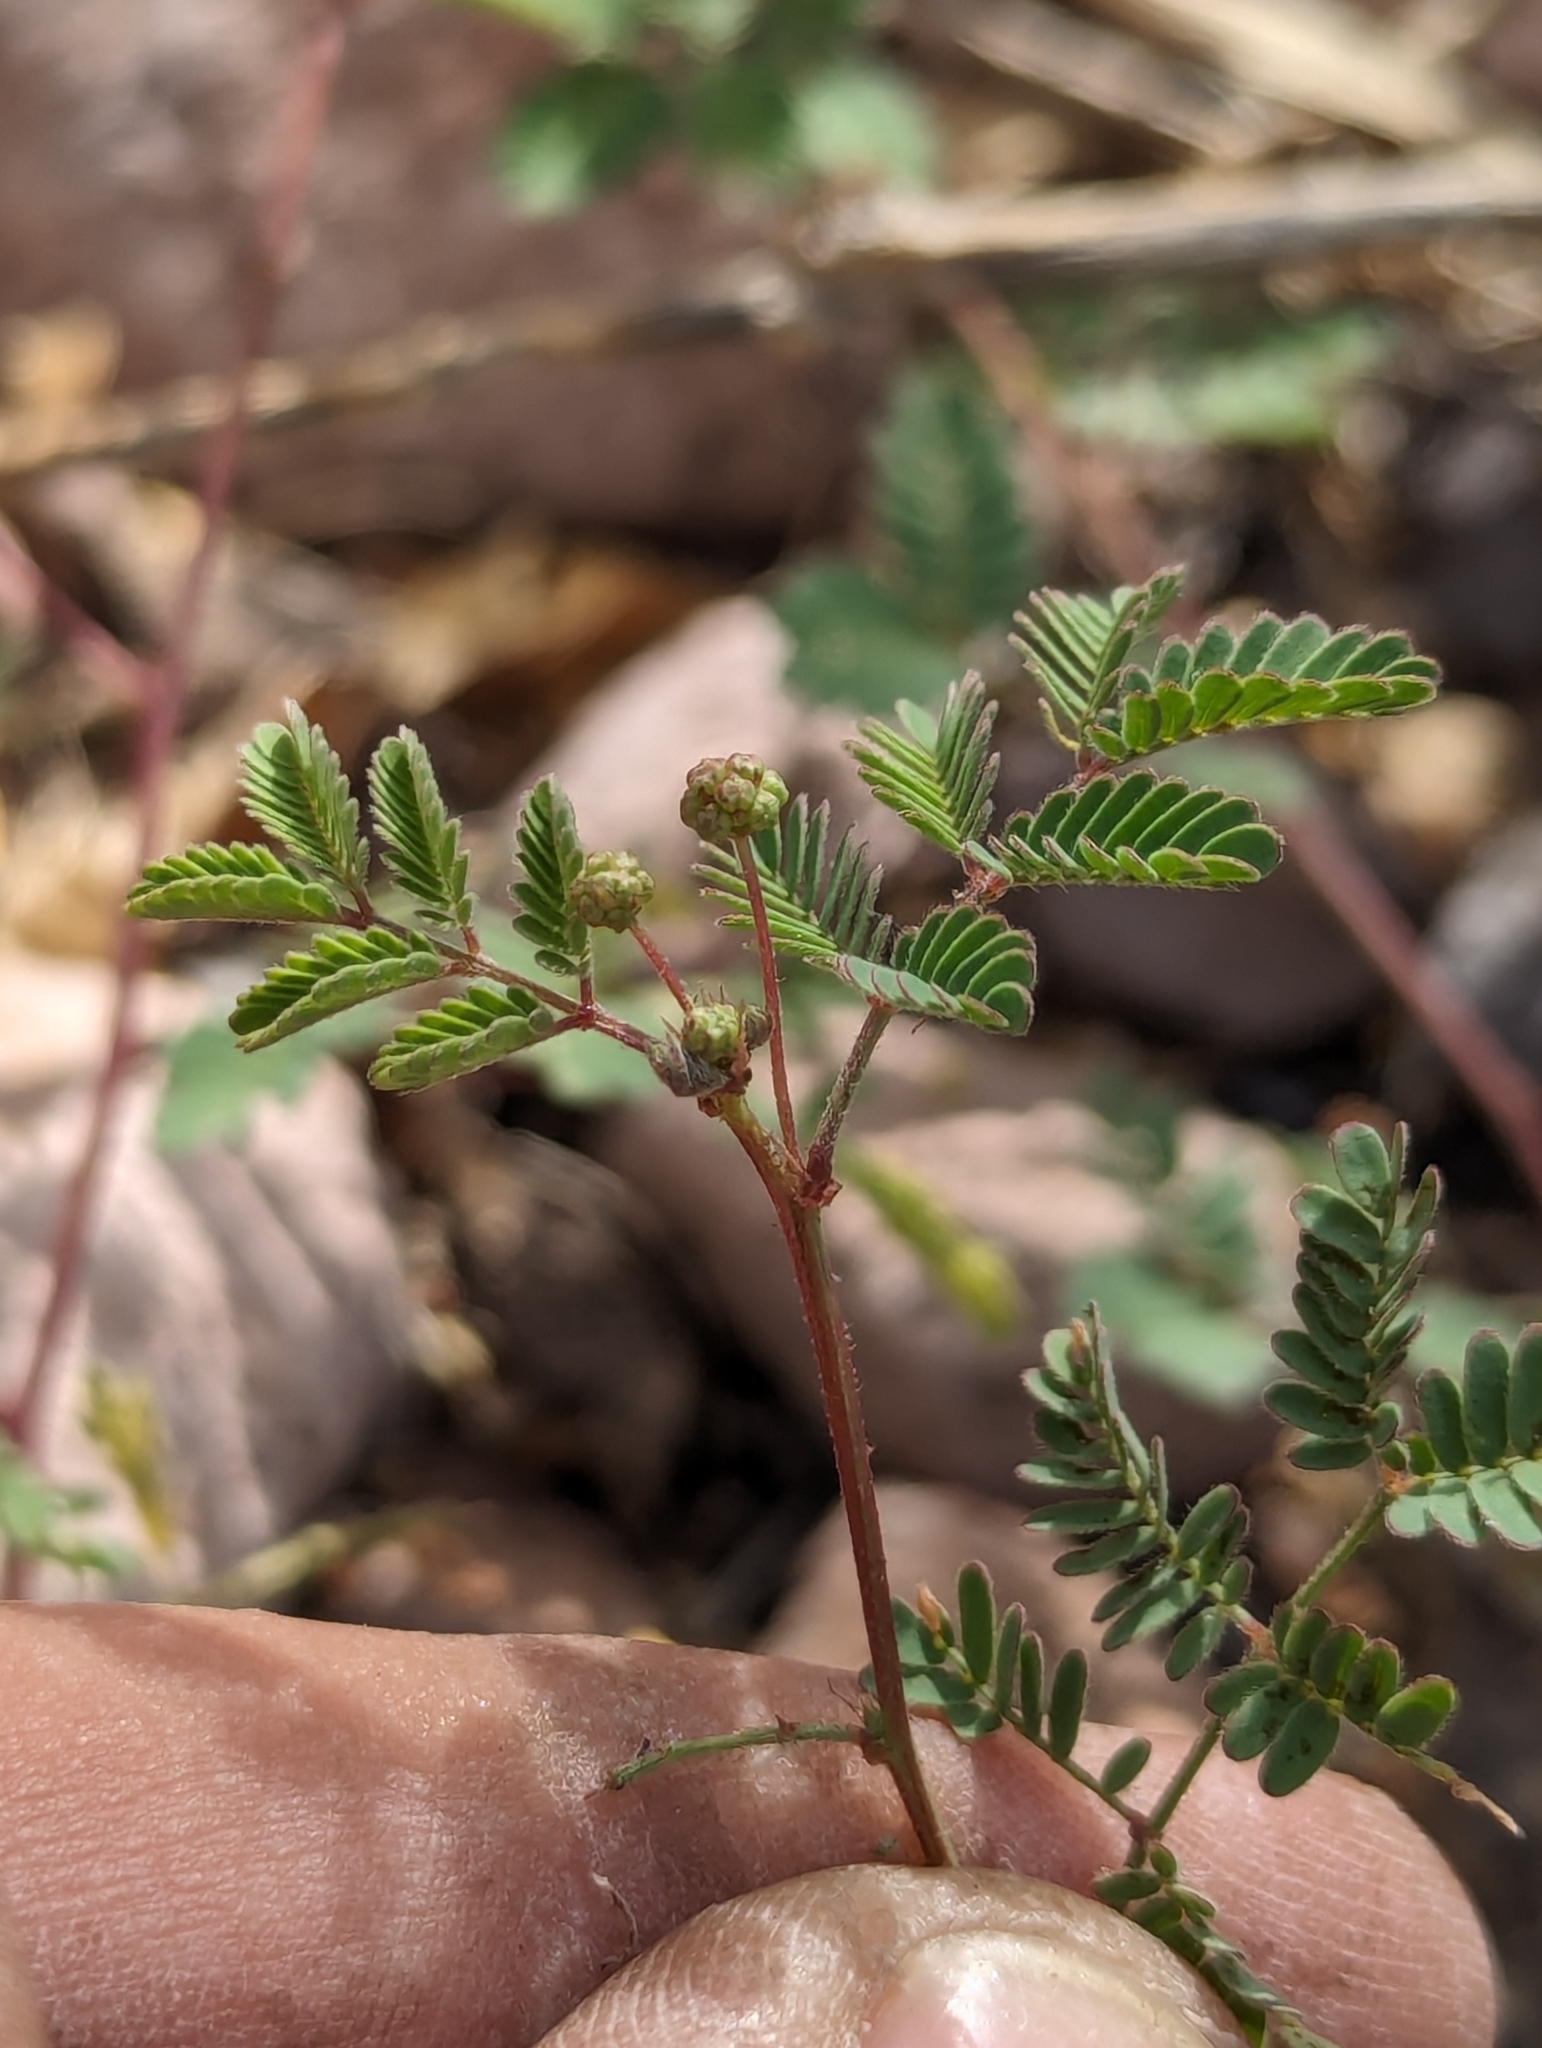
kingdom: Plantae
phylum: Tracheophyta
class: Magnoliopsida
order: Fabales
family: Fabaceae
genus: Desmanthus
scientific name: Desmanthus oligospermus
